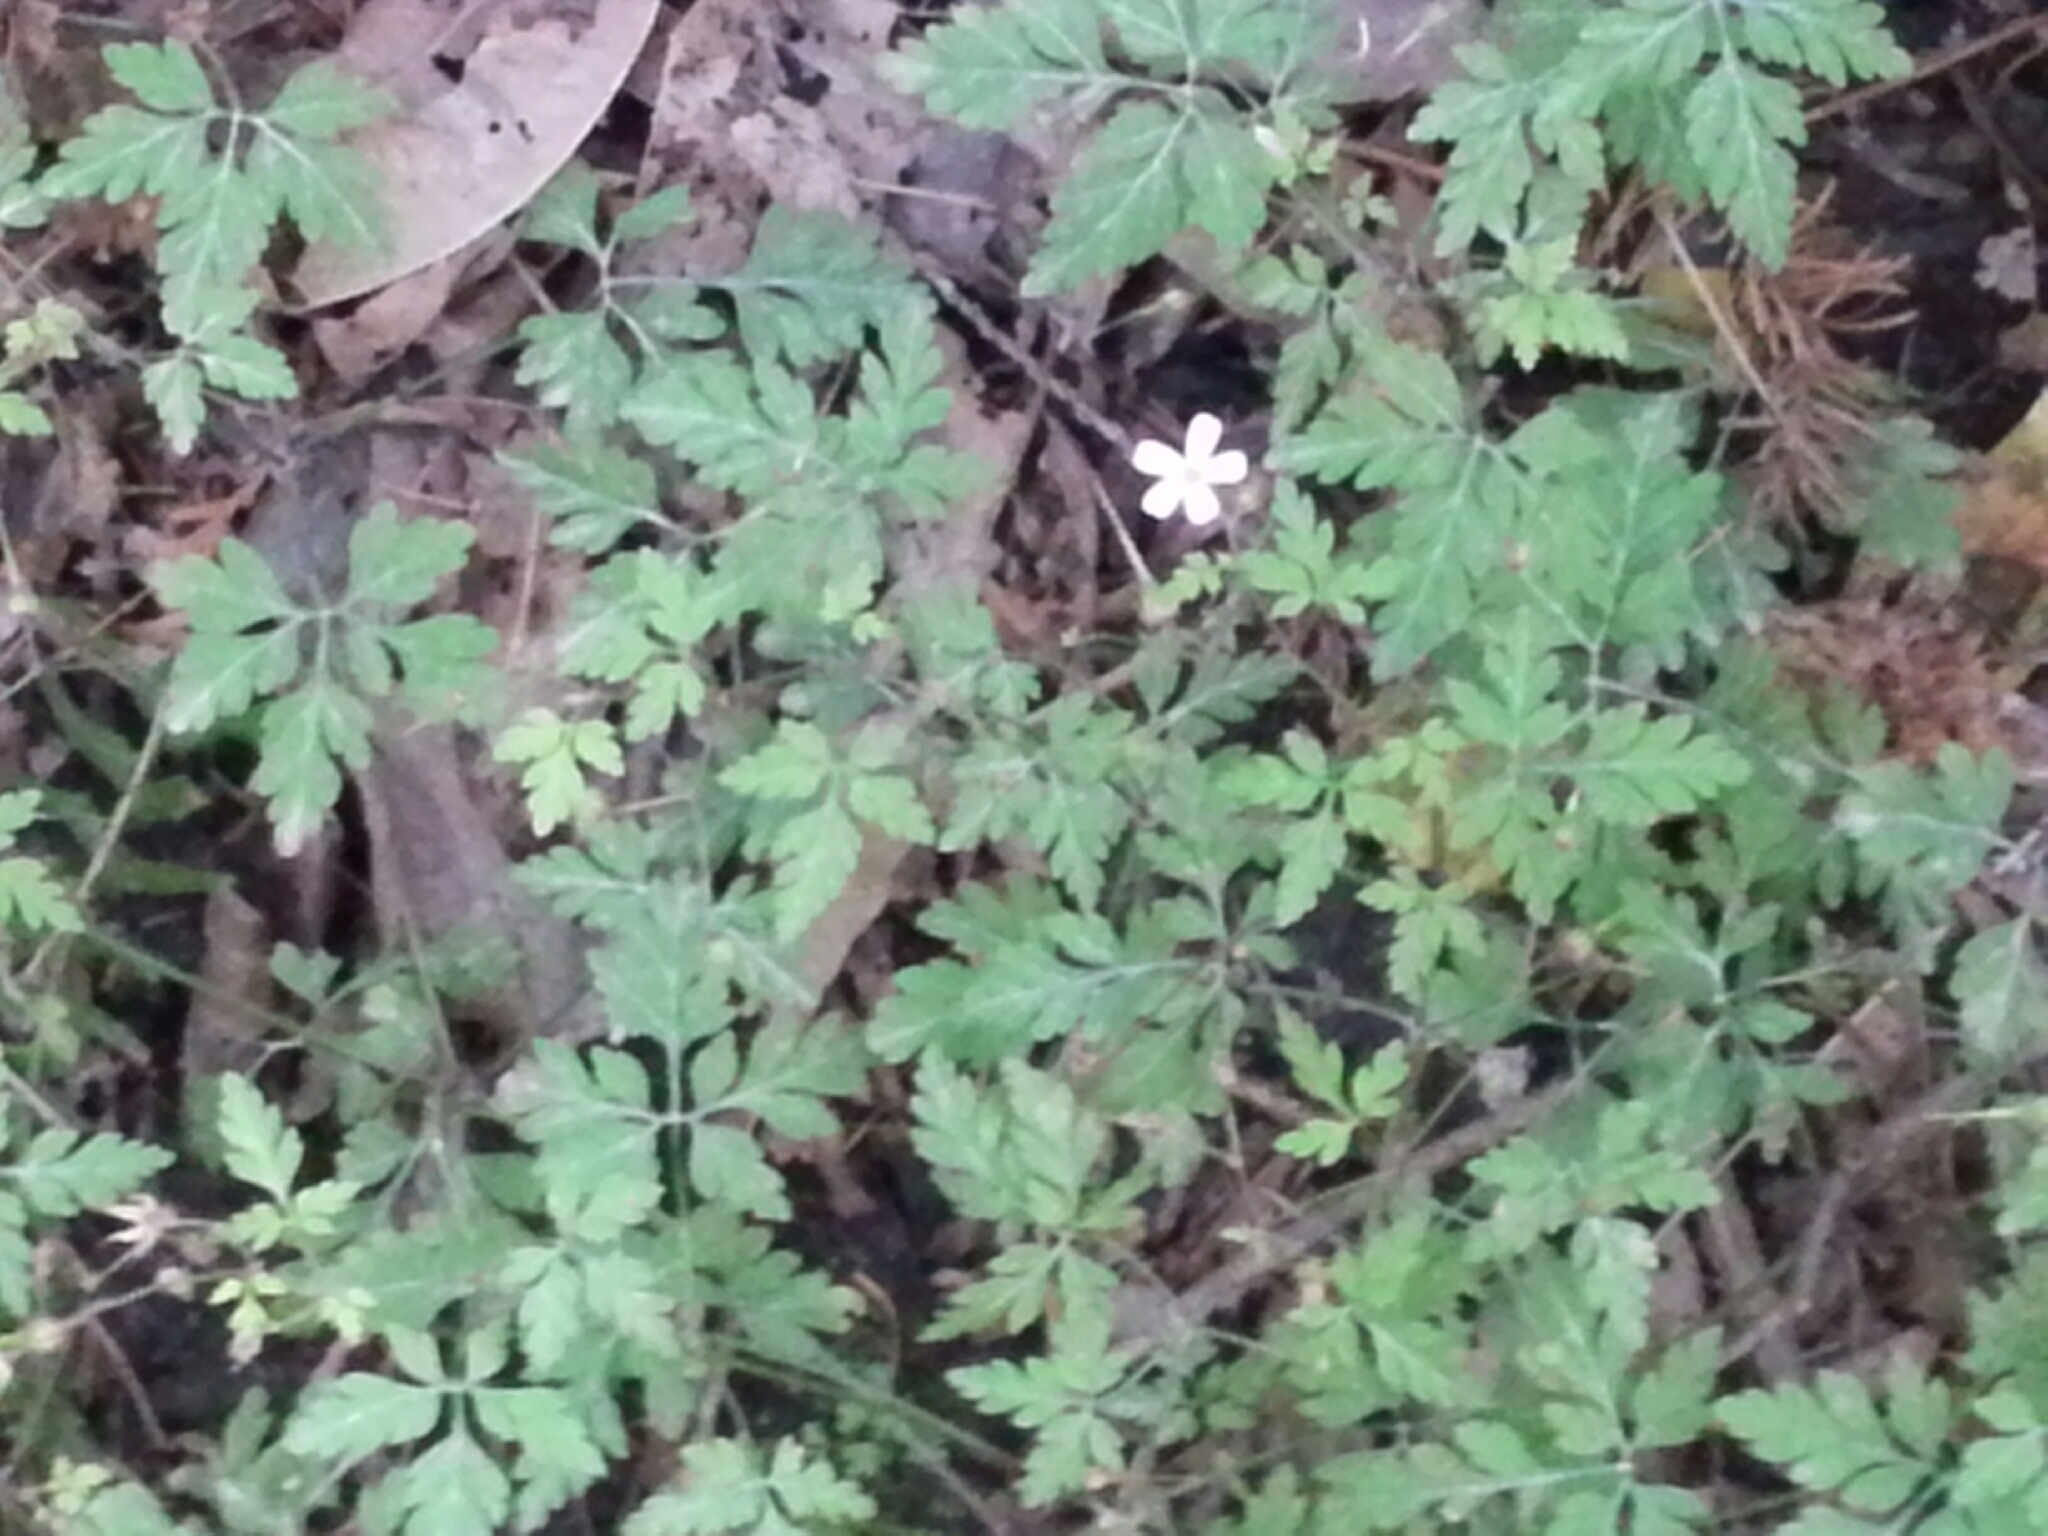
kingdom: Plantae
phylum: Tracheophyta
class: Magnoliopsida
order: Geraniales
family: Geraniaceae
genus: Geranium
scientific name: Geranium robertianum
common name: Herb-robert
